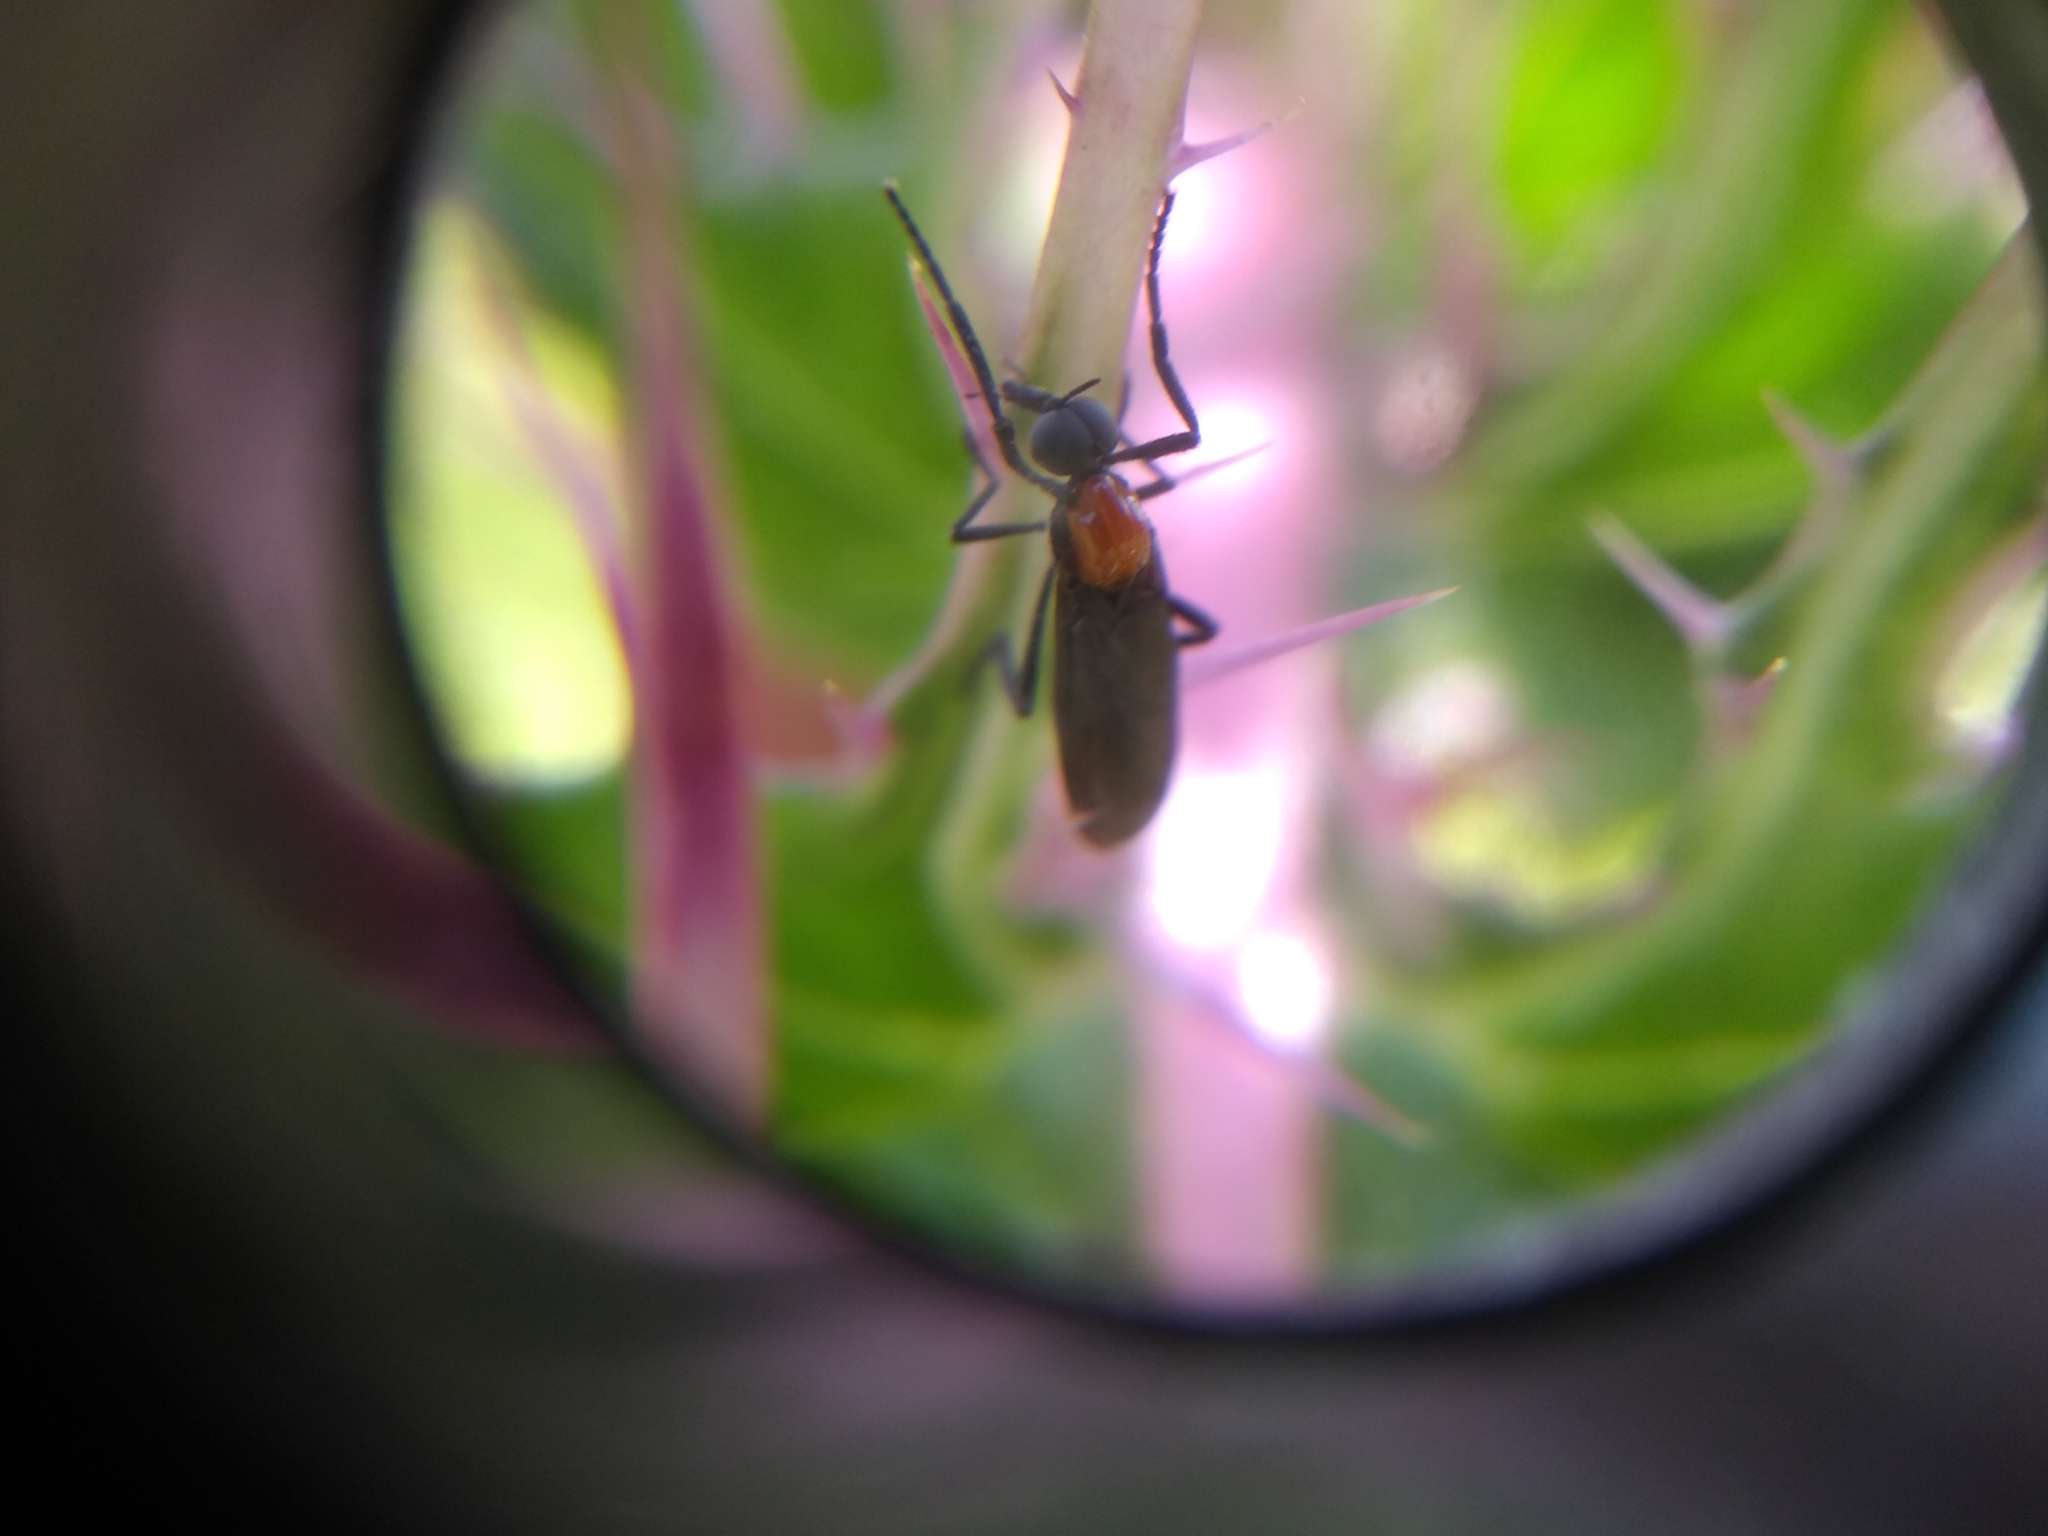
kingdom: Animalia
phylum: Arthropoda
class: Insecta
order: Diptera
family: Bibionidae
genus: Plecia
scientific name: Plecia nearctica
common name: March fly
